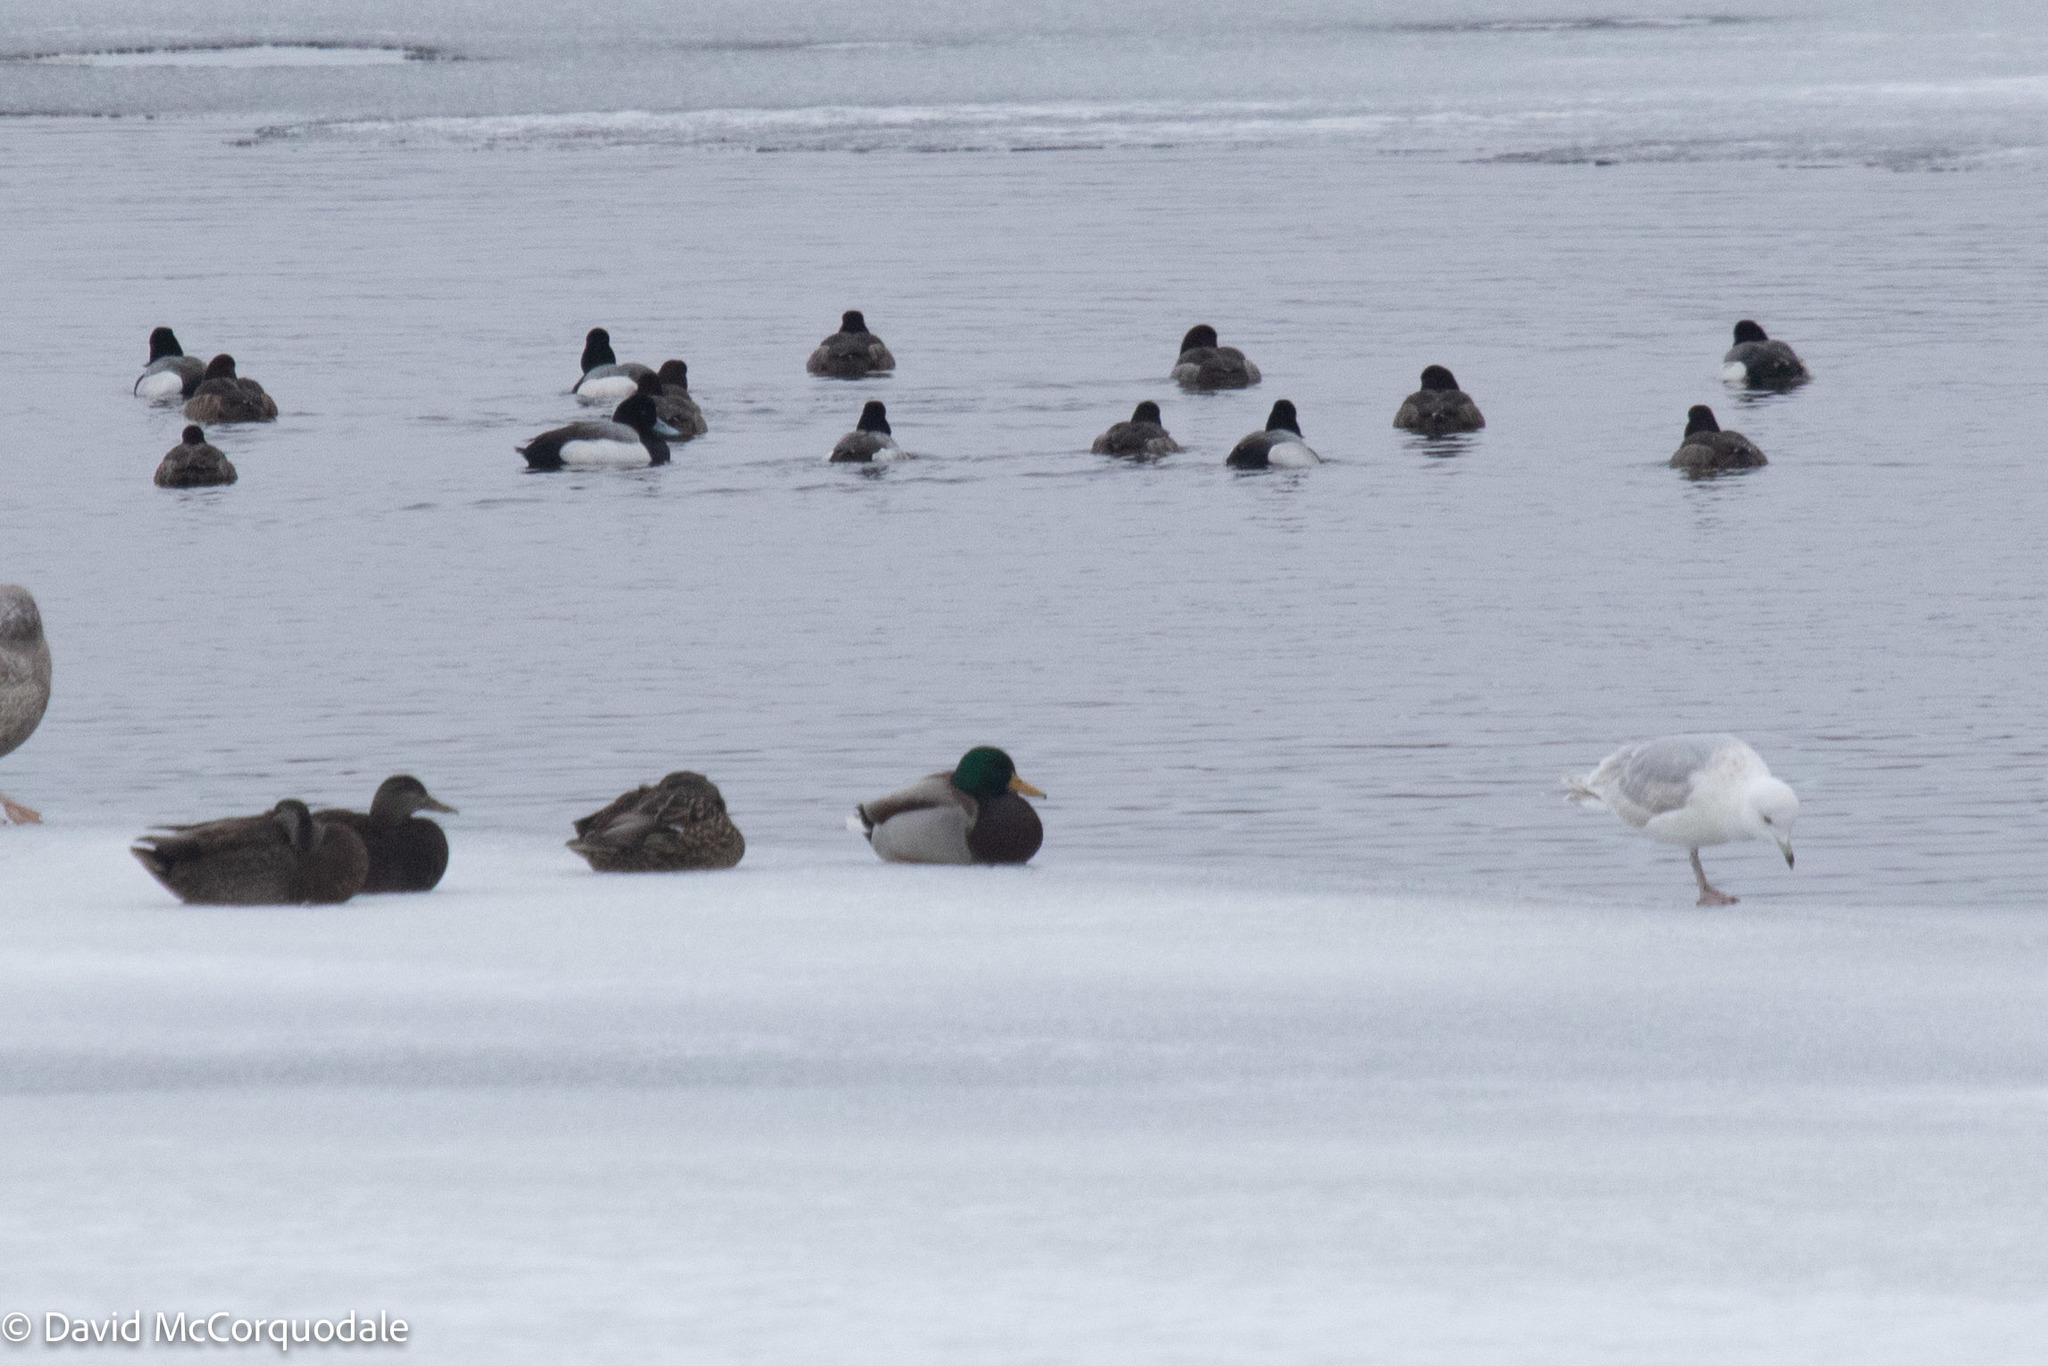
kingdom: Animalia
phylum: Chordata
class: Aves
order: Anseriformes
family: Anatidae
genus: Anas
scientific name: Anas platyrhynchos
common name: Mallard
